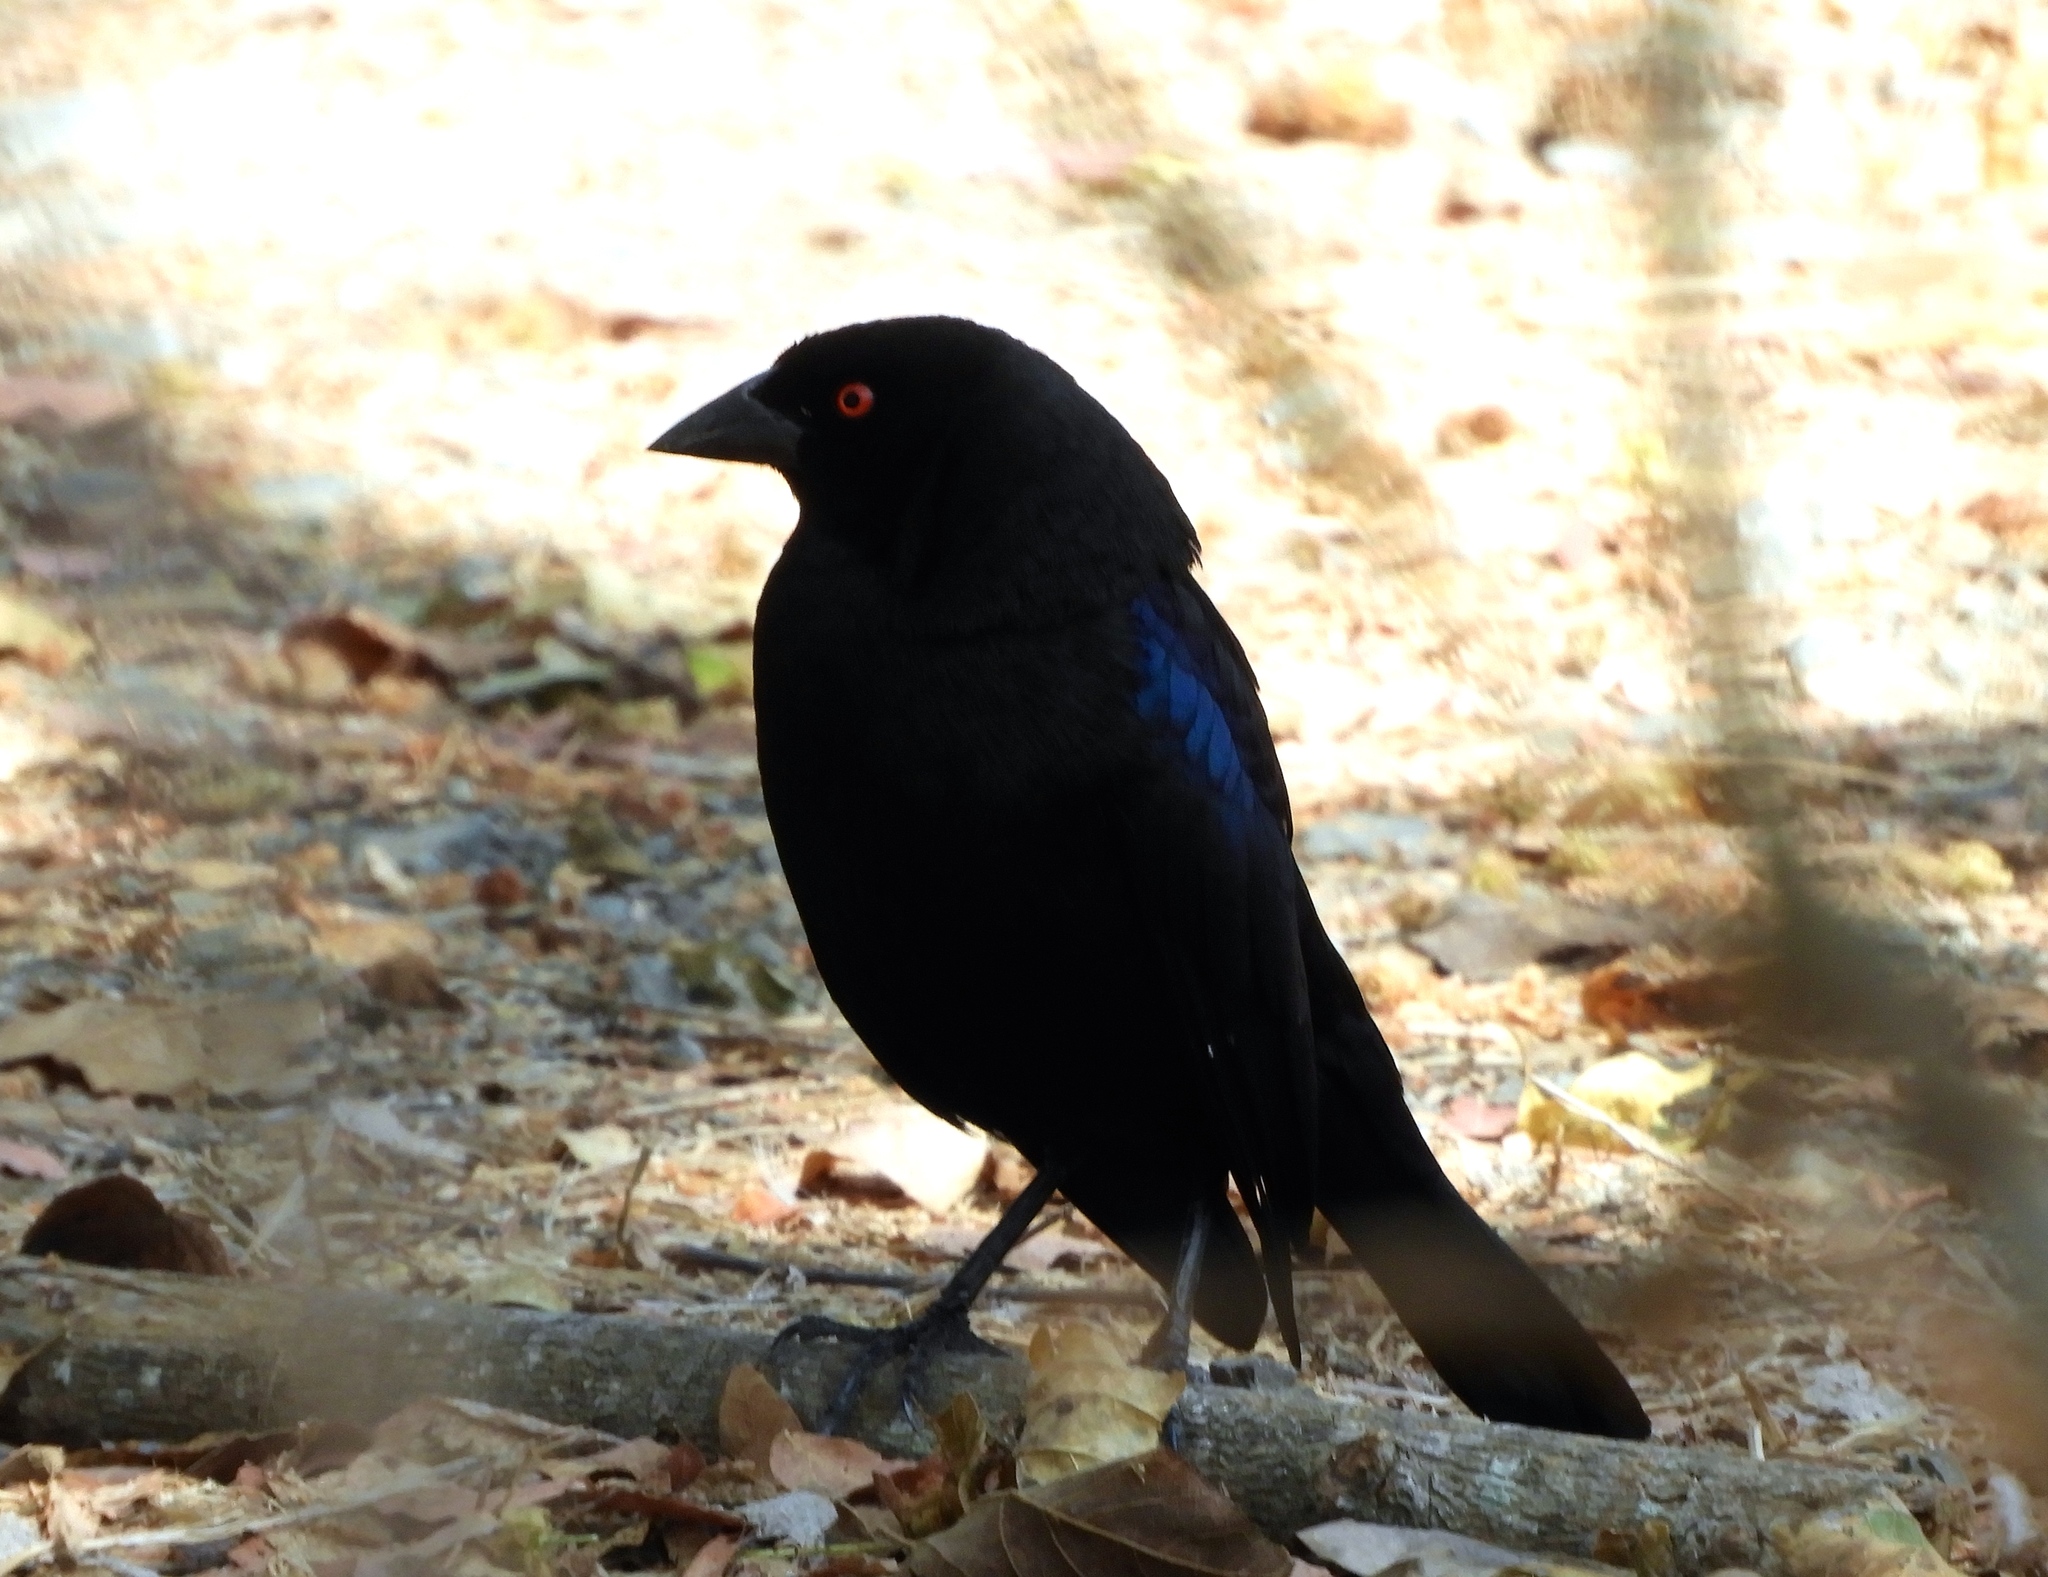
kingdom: Animalia
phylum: Chordata
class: Aves
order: Passeriformes
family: Icteridae
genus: Molothrus
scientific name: Molothrus aeneus
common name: Bronzed cowbird
